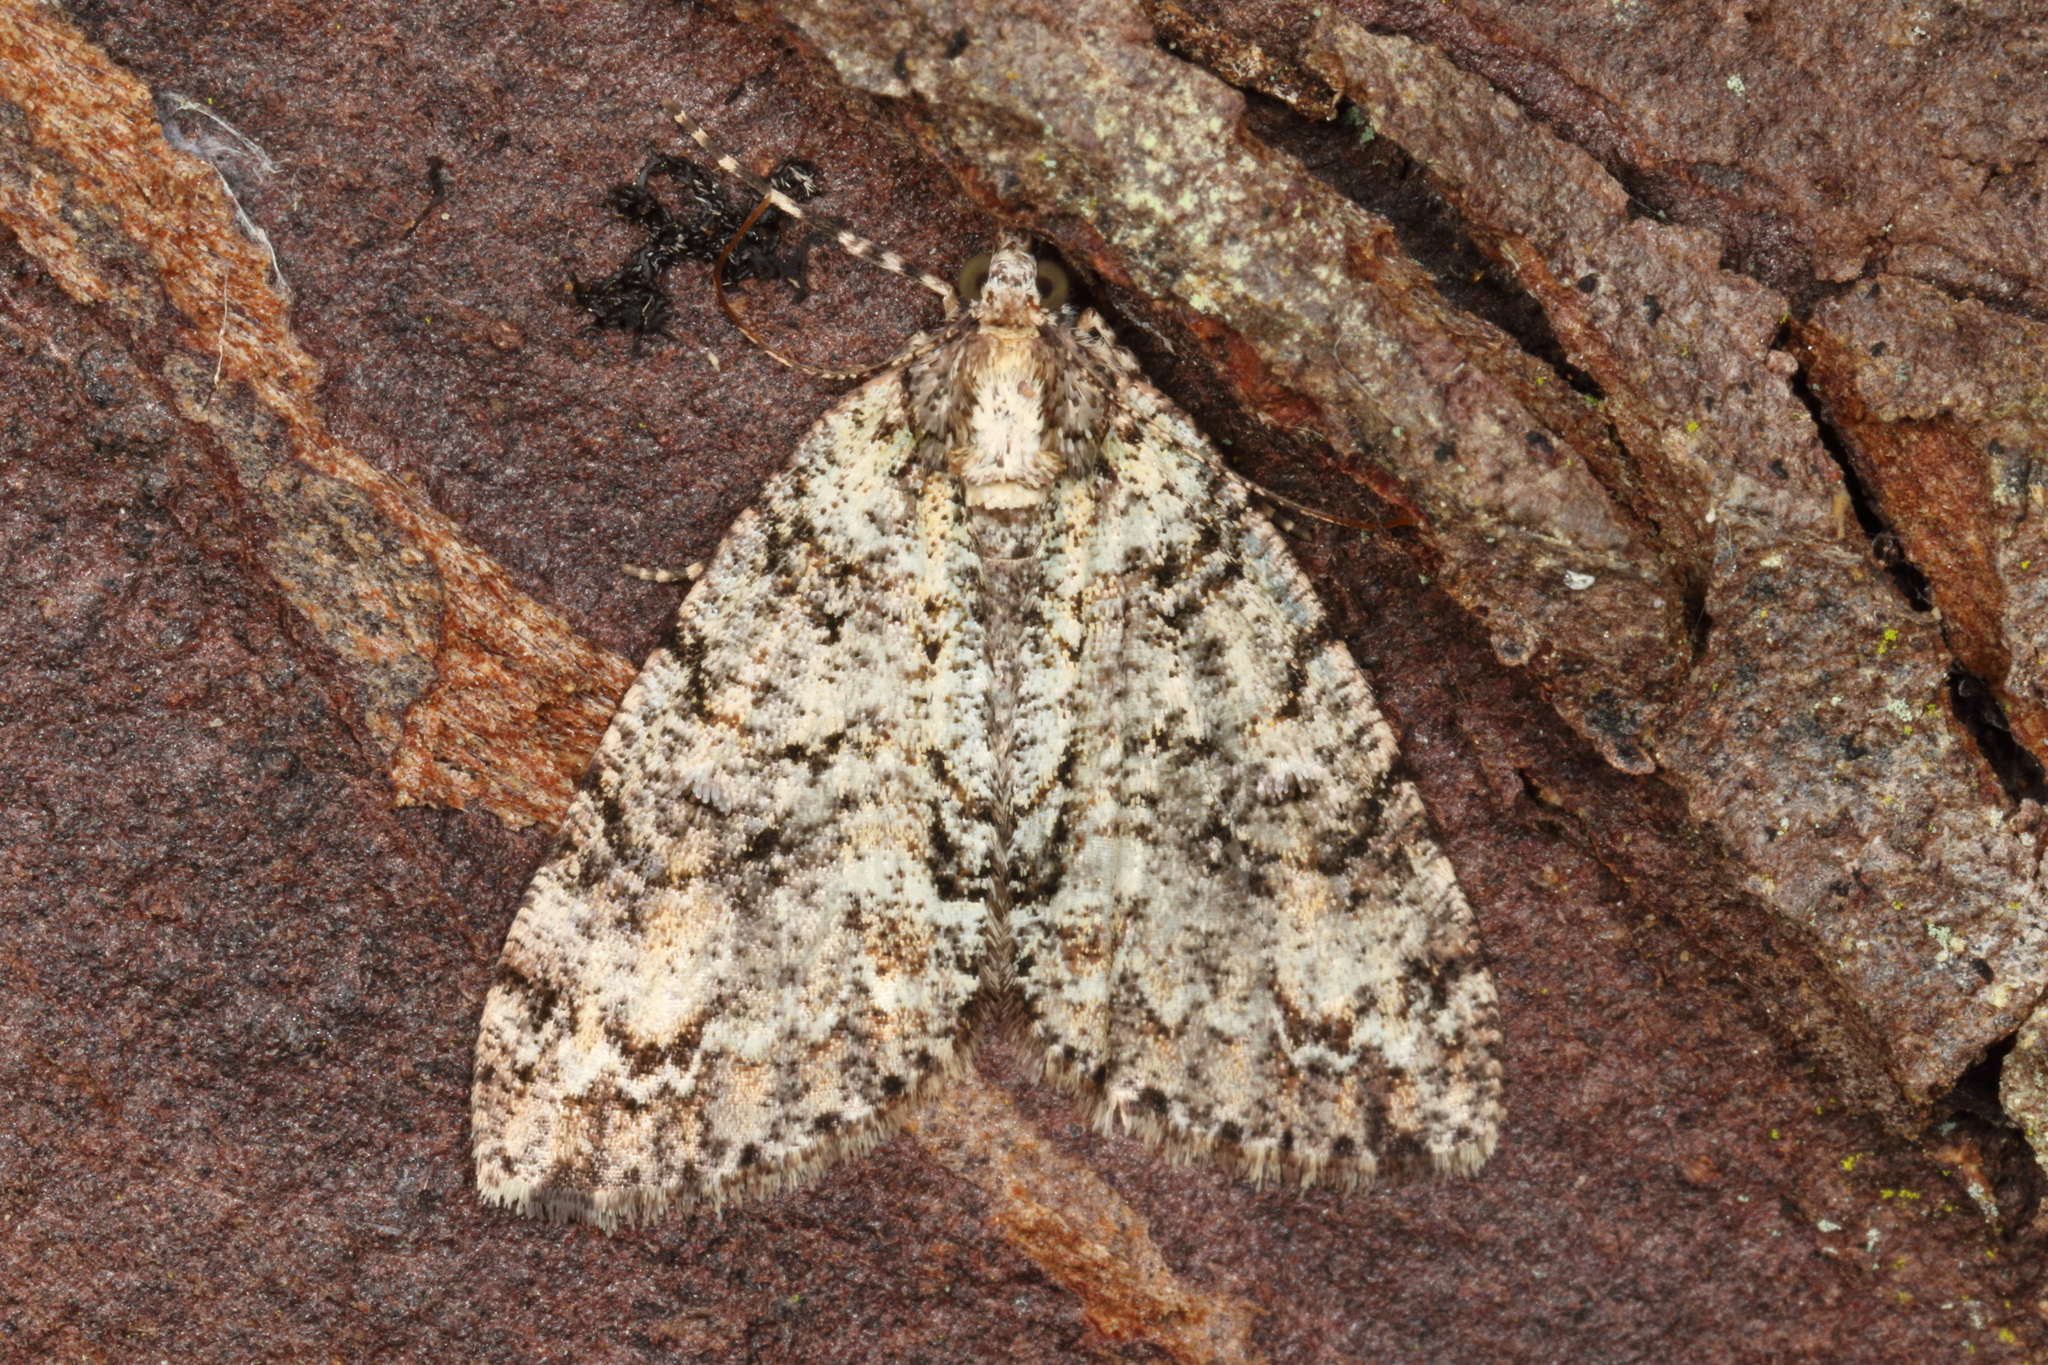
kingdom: Animalia
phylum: Arthropoda
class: Insecta
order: Lepidoptera
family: Geometridae
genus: Pseudocoremia
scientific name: Pseudocoremia suavis
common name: Common forest looper
